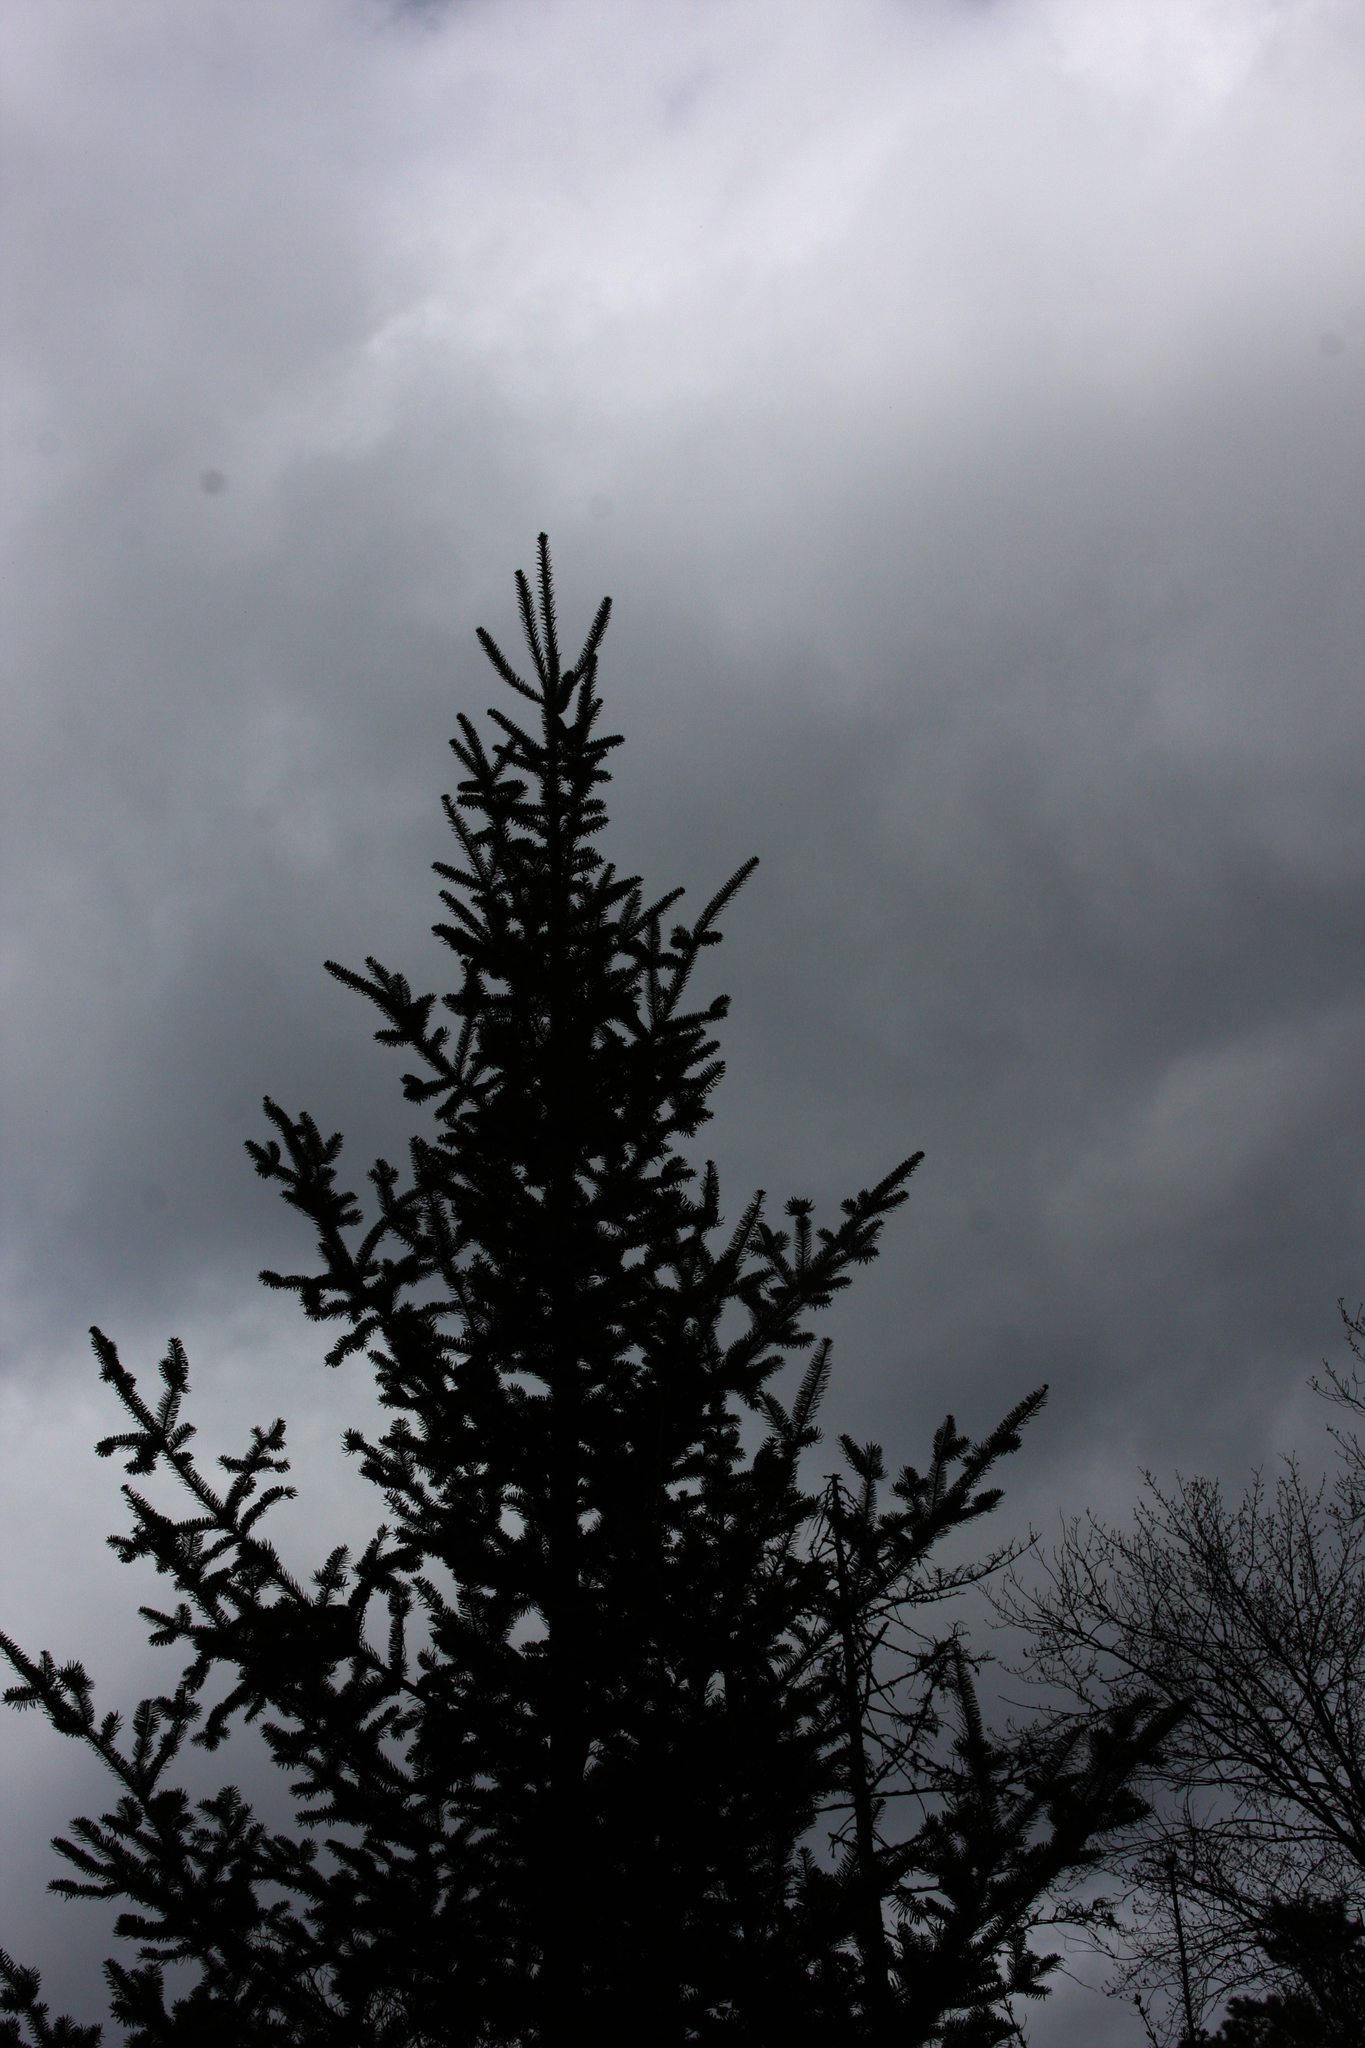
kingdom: Plantae
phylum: Tracheophyta
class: Pinopsida
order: Pinales
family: Pinaceae
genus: Abies
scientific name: Abies balsamea
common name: Balsam fir
